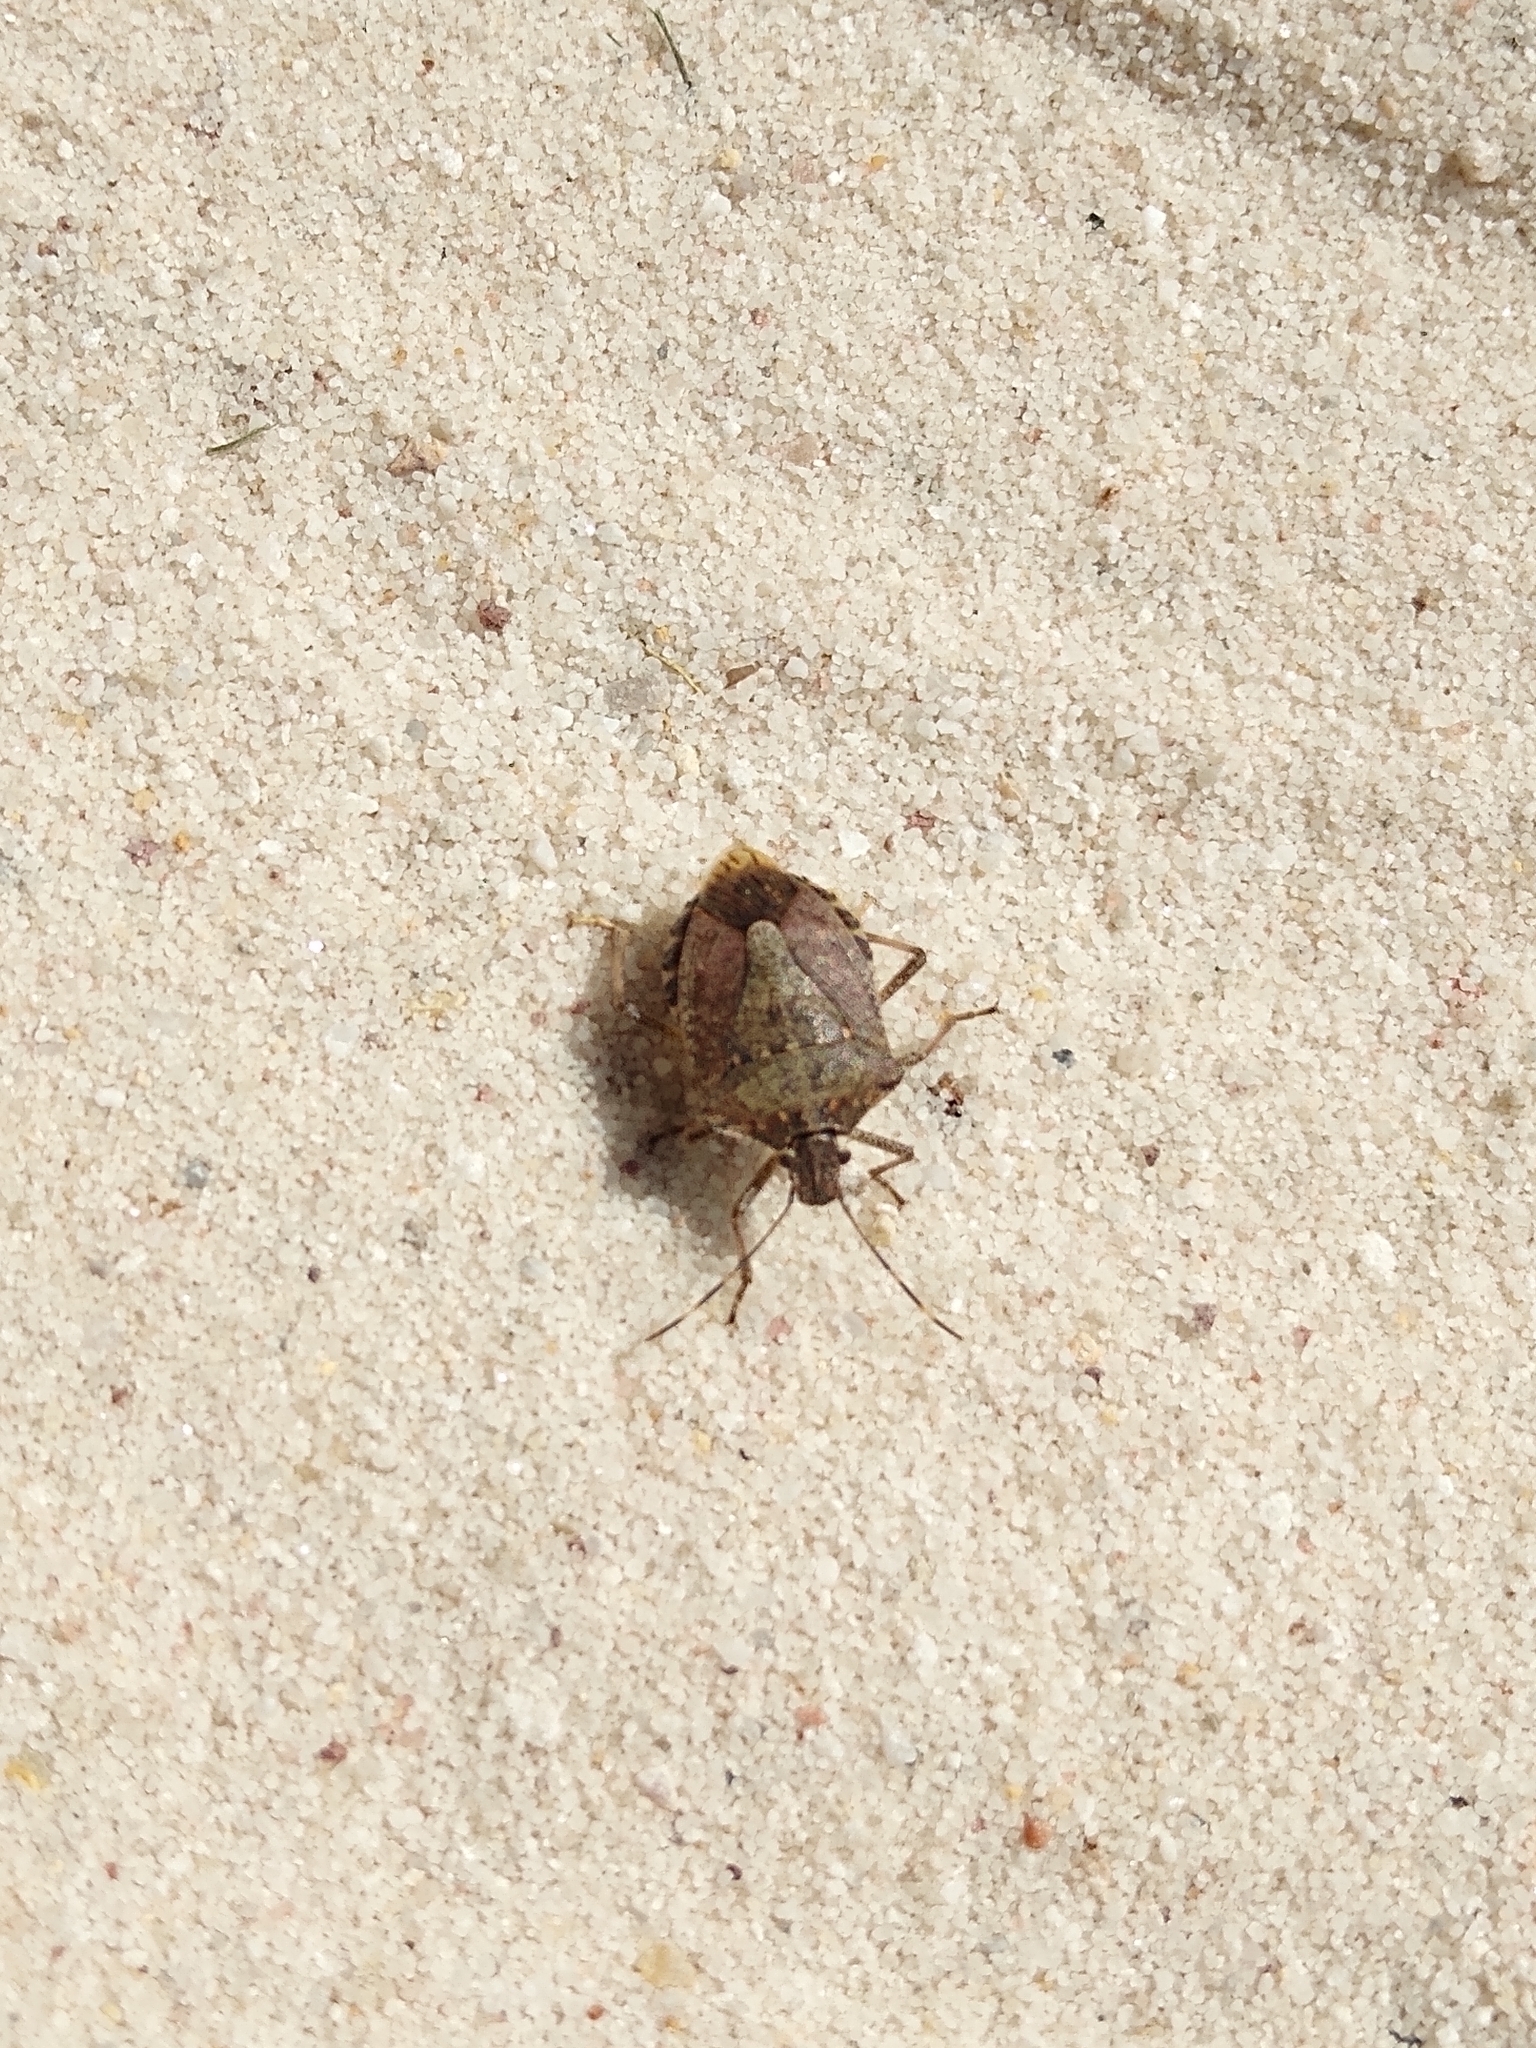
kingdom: Animalia
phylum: Arthropoda
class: Insecta
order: Hemiptera
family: Pentatomidae
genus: Halyomorpha
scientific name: Halyomorpha halys
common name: Brown marmorated stink bug
